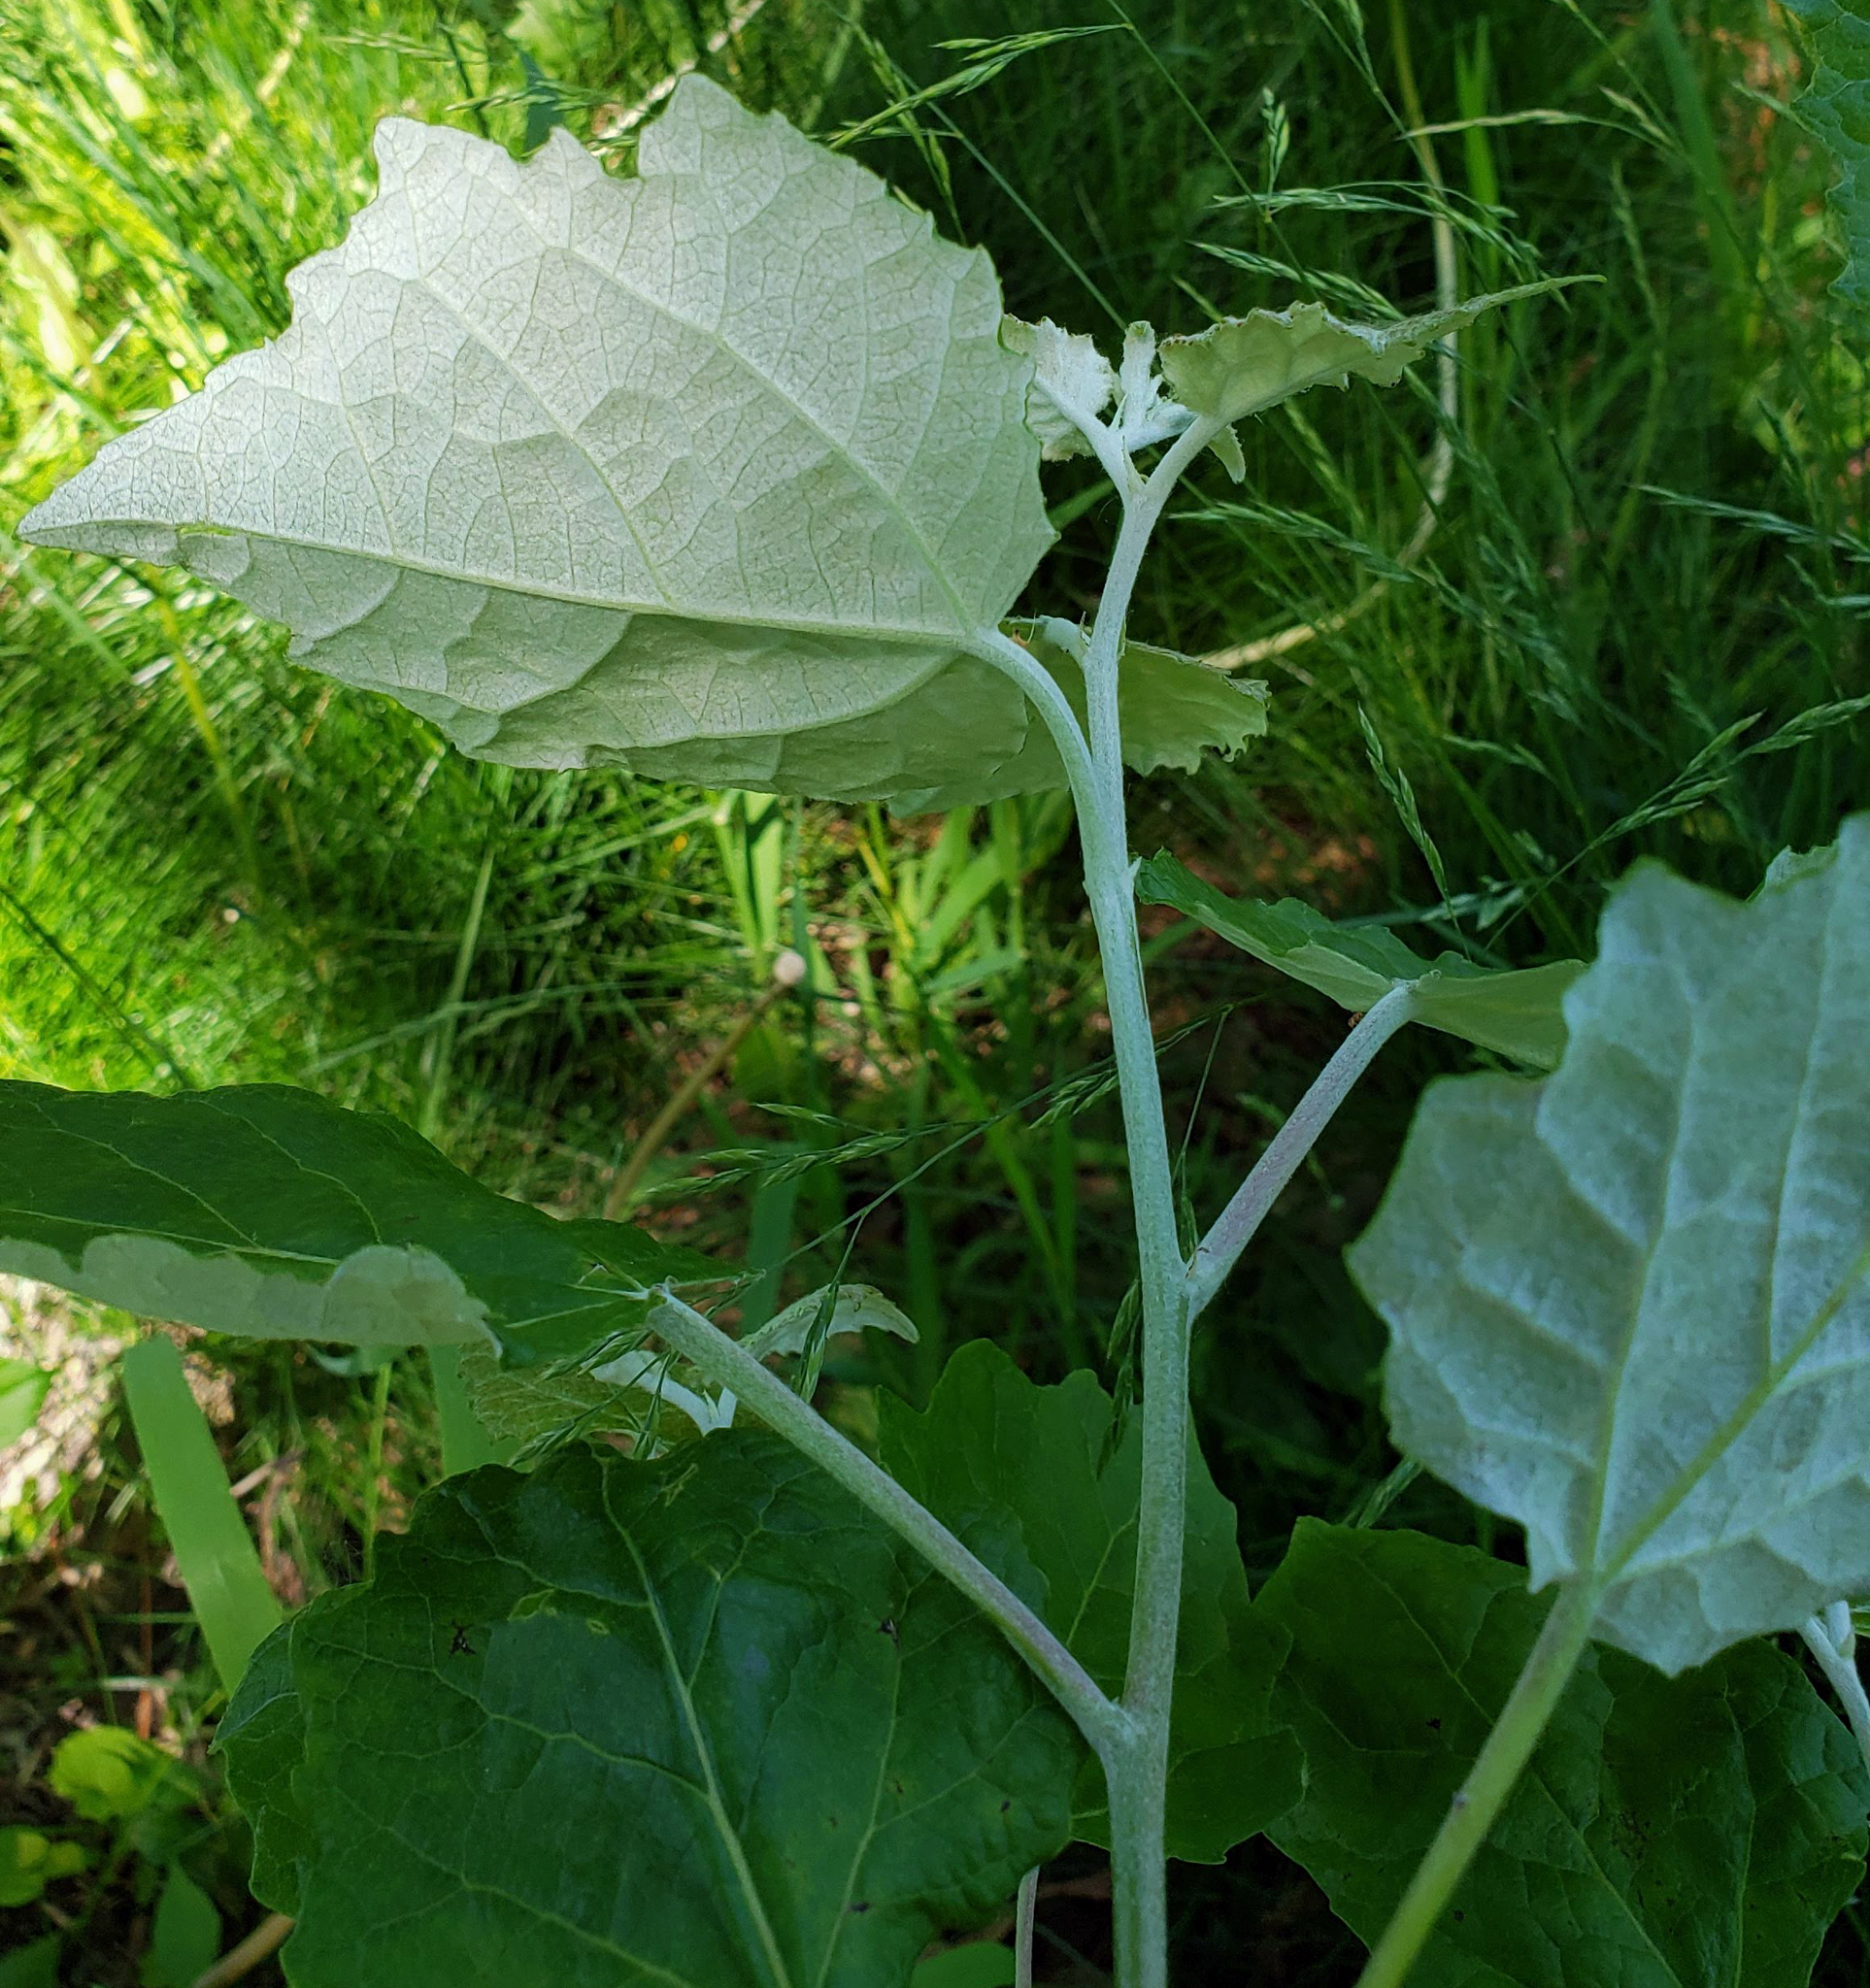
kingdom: Plantae
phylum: Tracheophyta
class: Magnoliopsida
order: Malpighiales
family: Salicaceae
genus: Populus
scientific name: Populus alba
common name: White poplar
